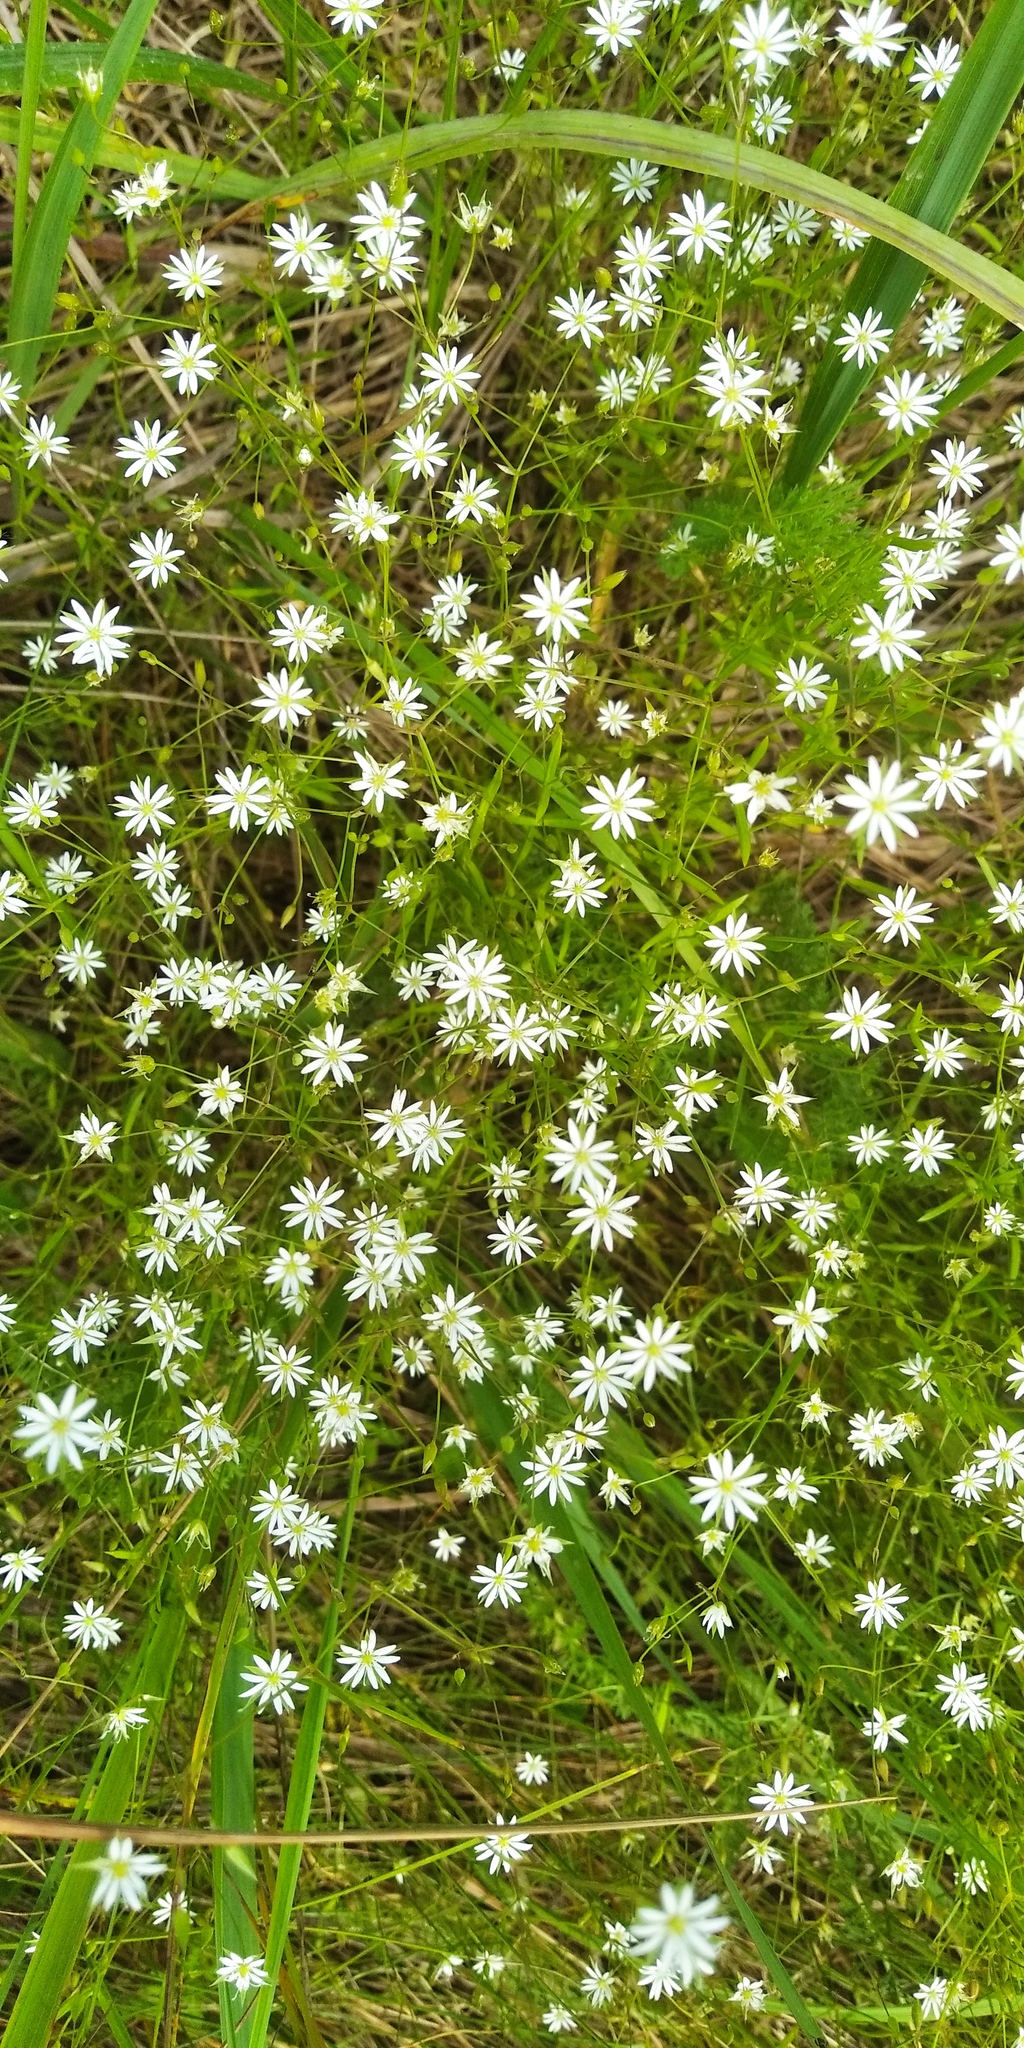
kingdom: Plantae
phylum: Tracheophyta
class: Magnoliopsida
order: Caryophyllales
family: Caryophyllaceae
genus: Stellaria
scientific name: Stellaria graminea
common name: Grass-like starwort
